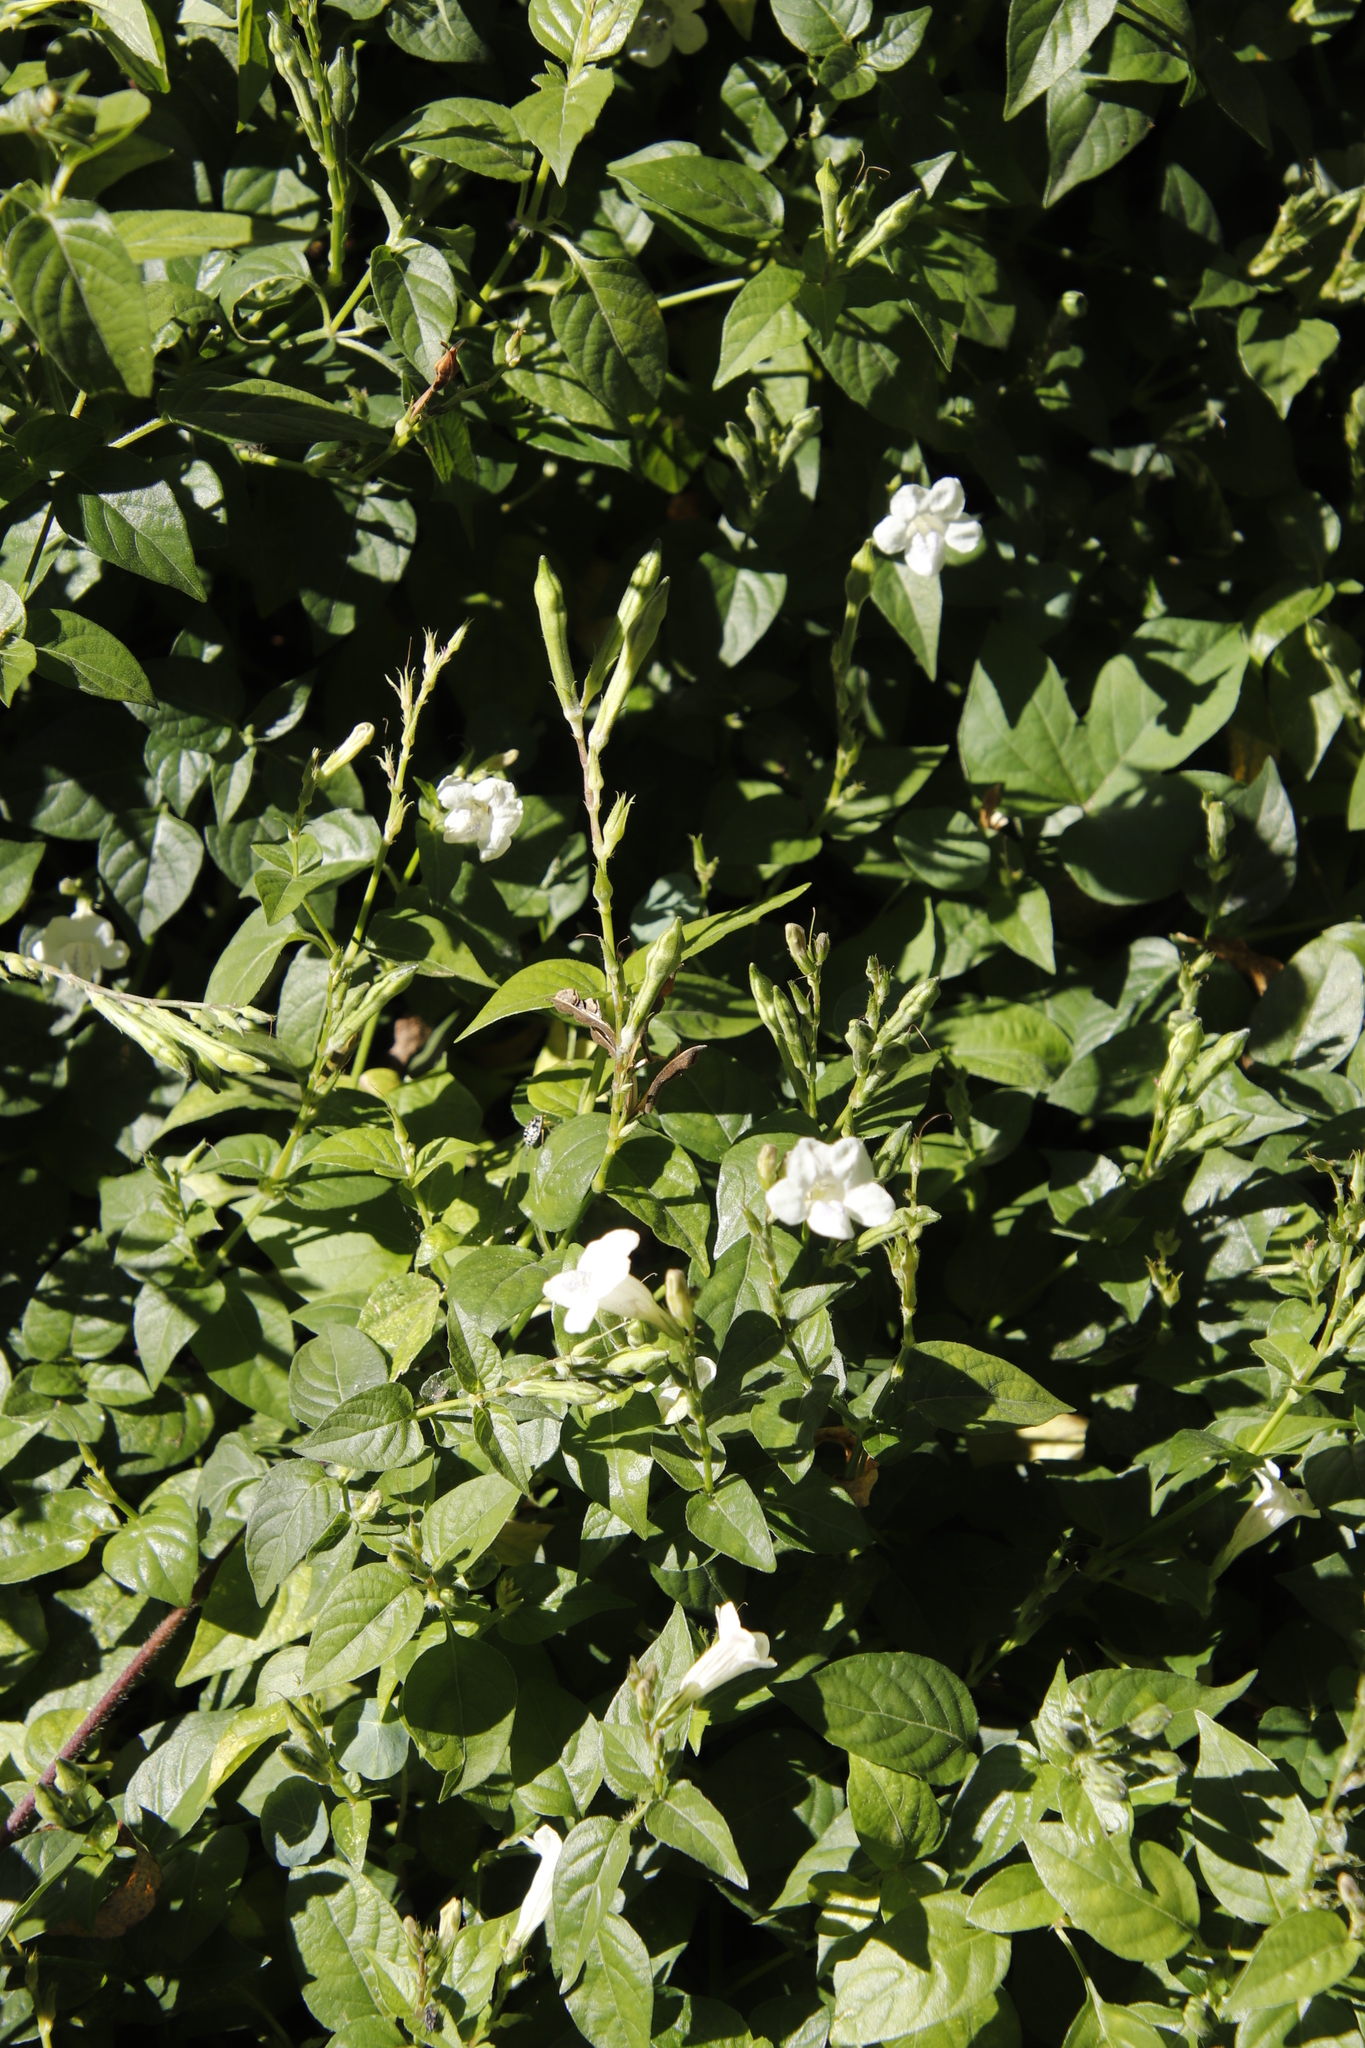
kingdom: Plantae
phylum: Tracheophyta
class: Magnoliopsida
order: Lamiales
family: Acanthaceae
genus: Asystasia
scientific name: Asystasia intrusa
